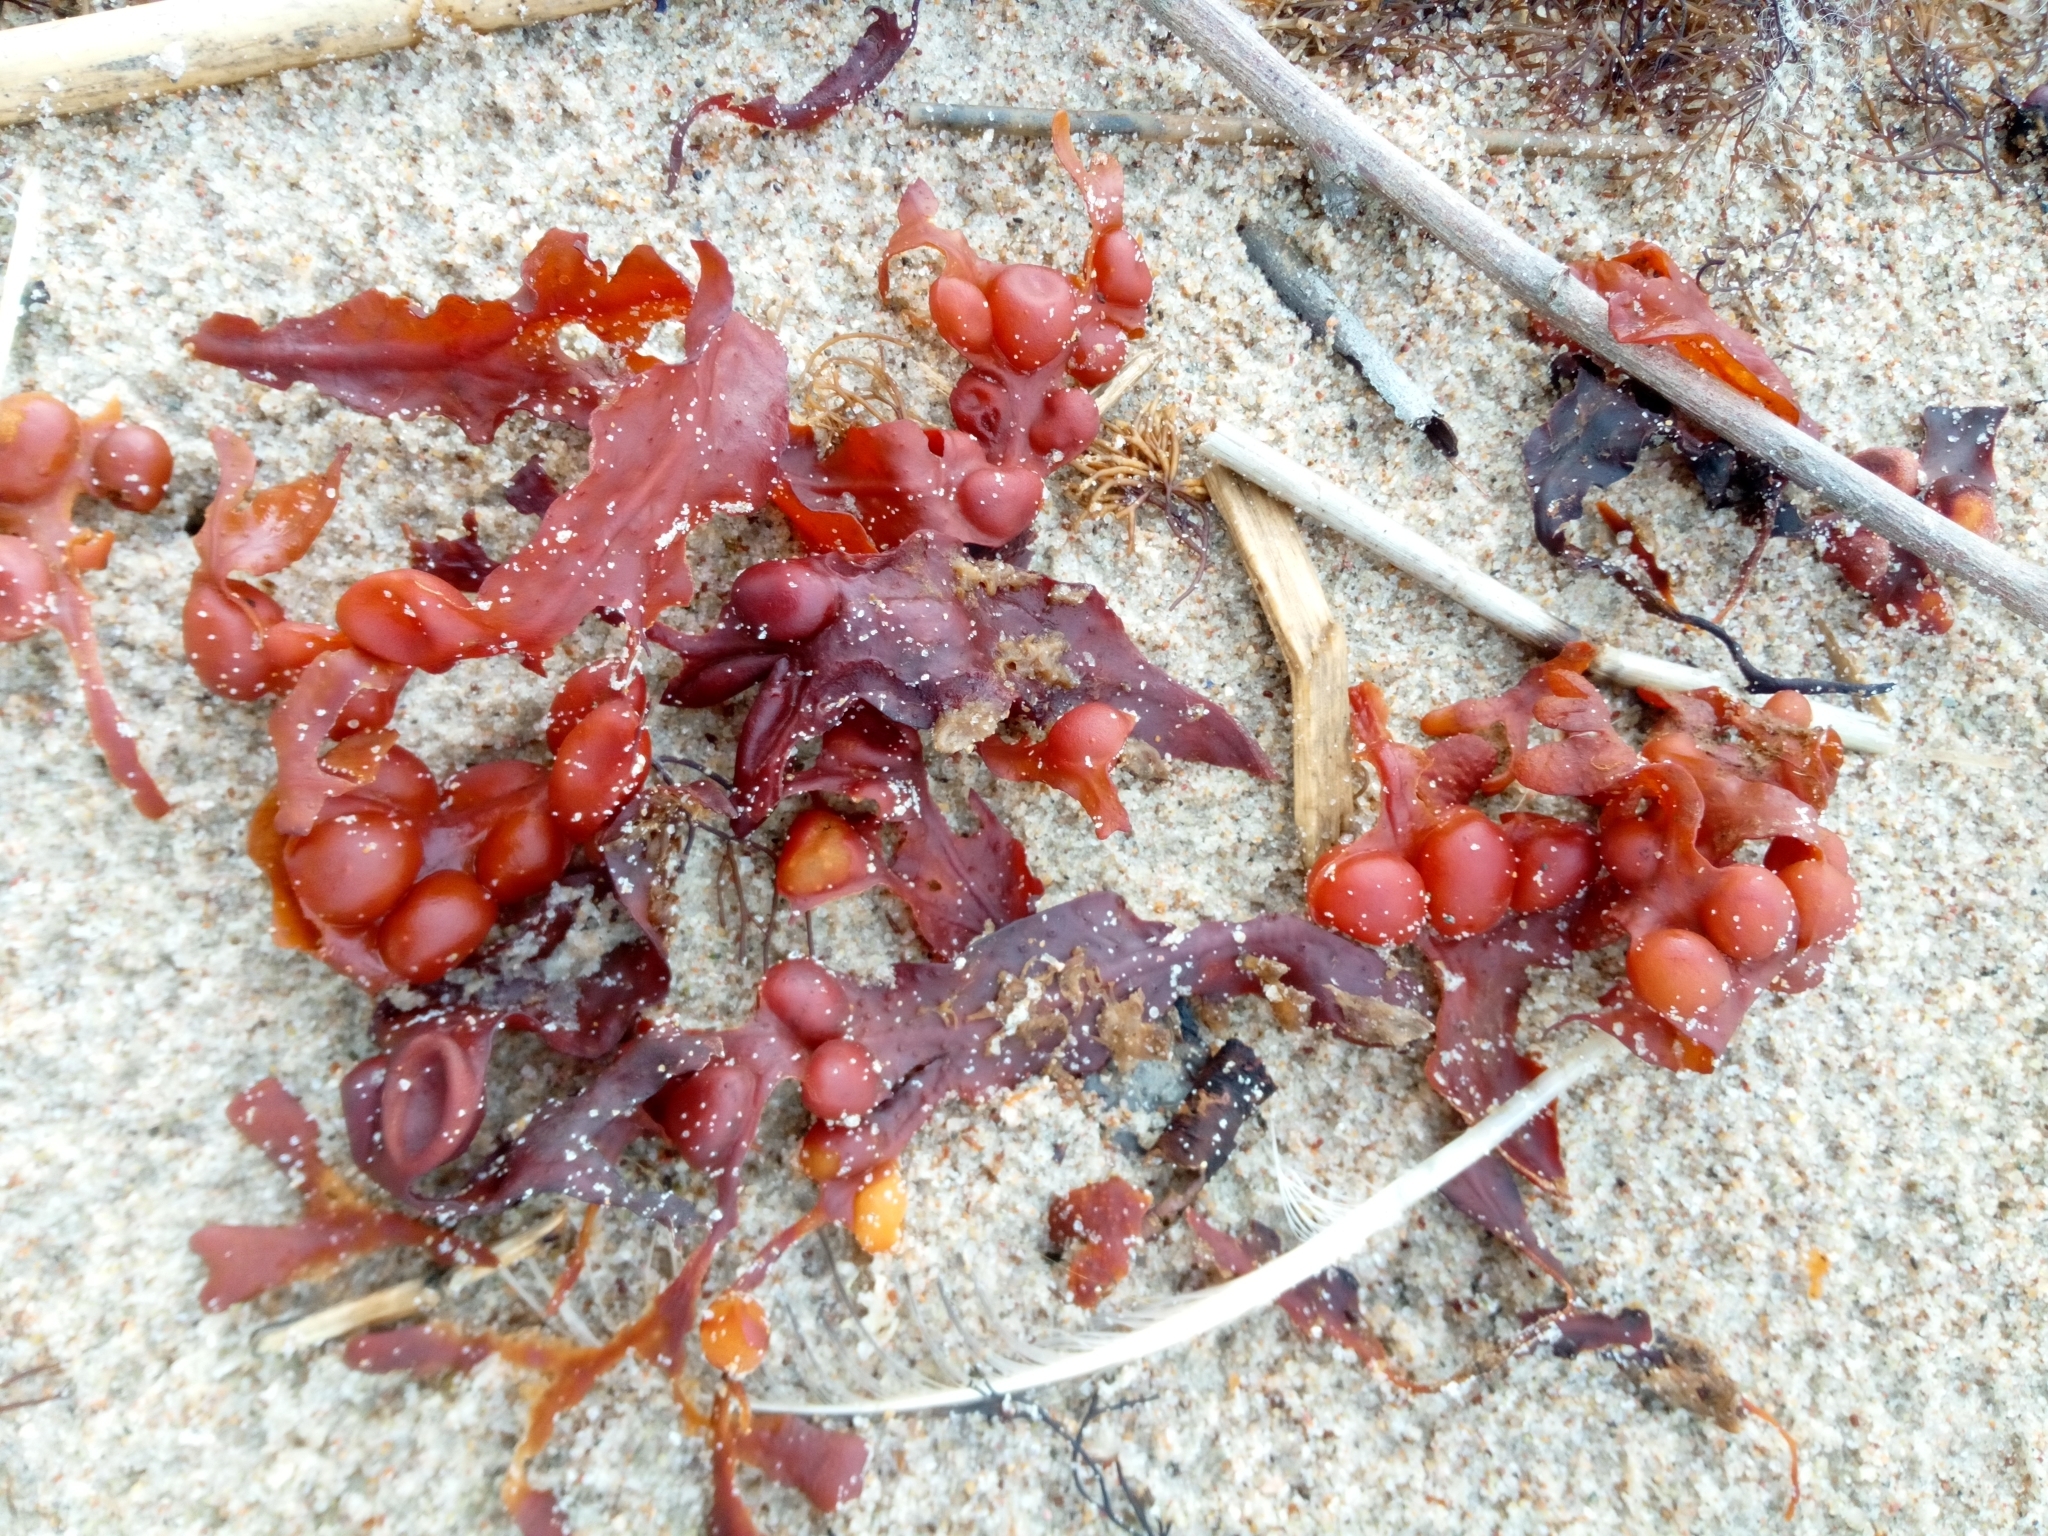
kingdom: Chromista
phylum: Ochrophyta
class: Phaeophyceae
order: Fucales
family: Fucaceae
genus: Fucus
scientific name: Fucus vesiculosus
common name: Bladder wrack
